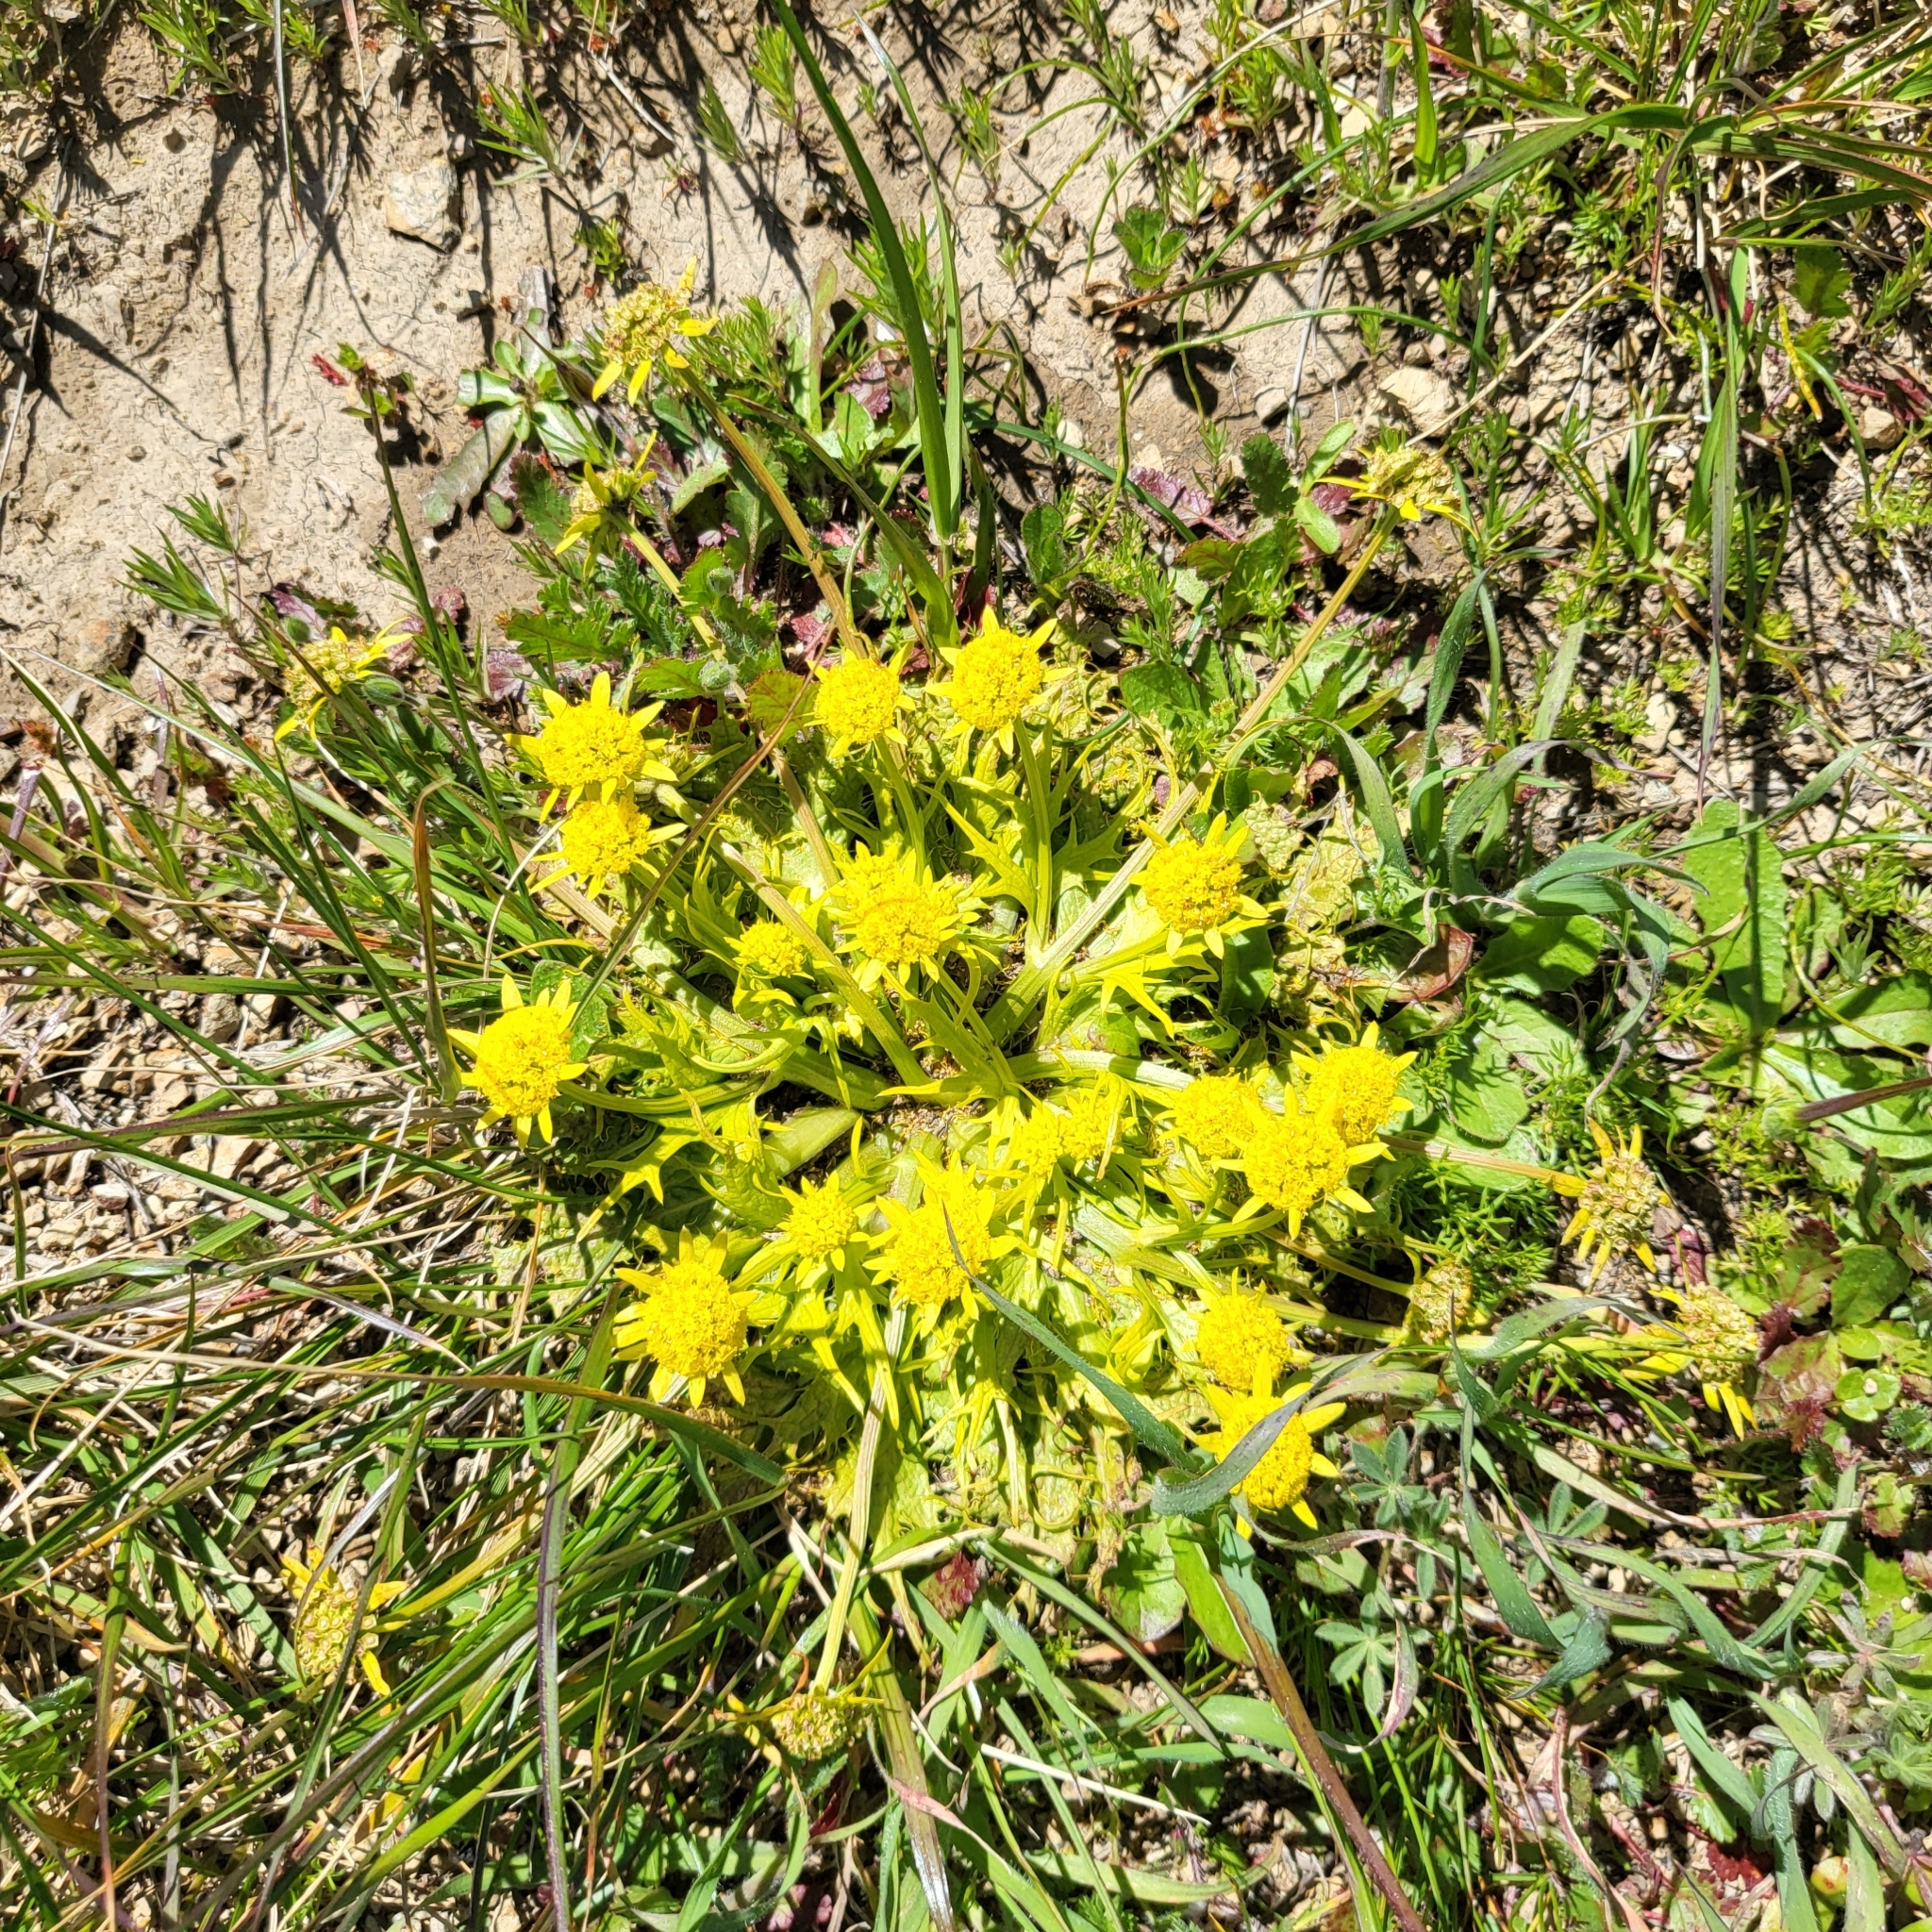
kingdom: Plantae
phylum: Tracheophyta
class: Magnoliopsida
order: Apiales
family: Apiaceae
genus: Sanicula
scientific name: Sanicula arctopoides
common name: Footsteps-of-spring
